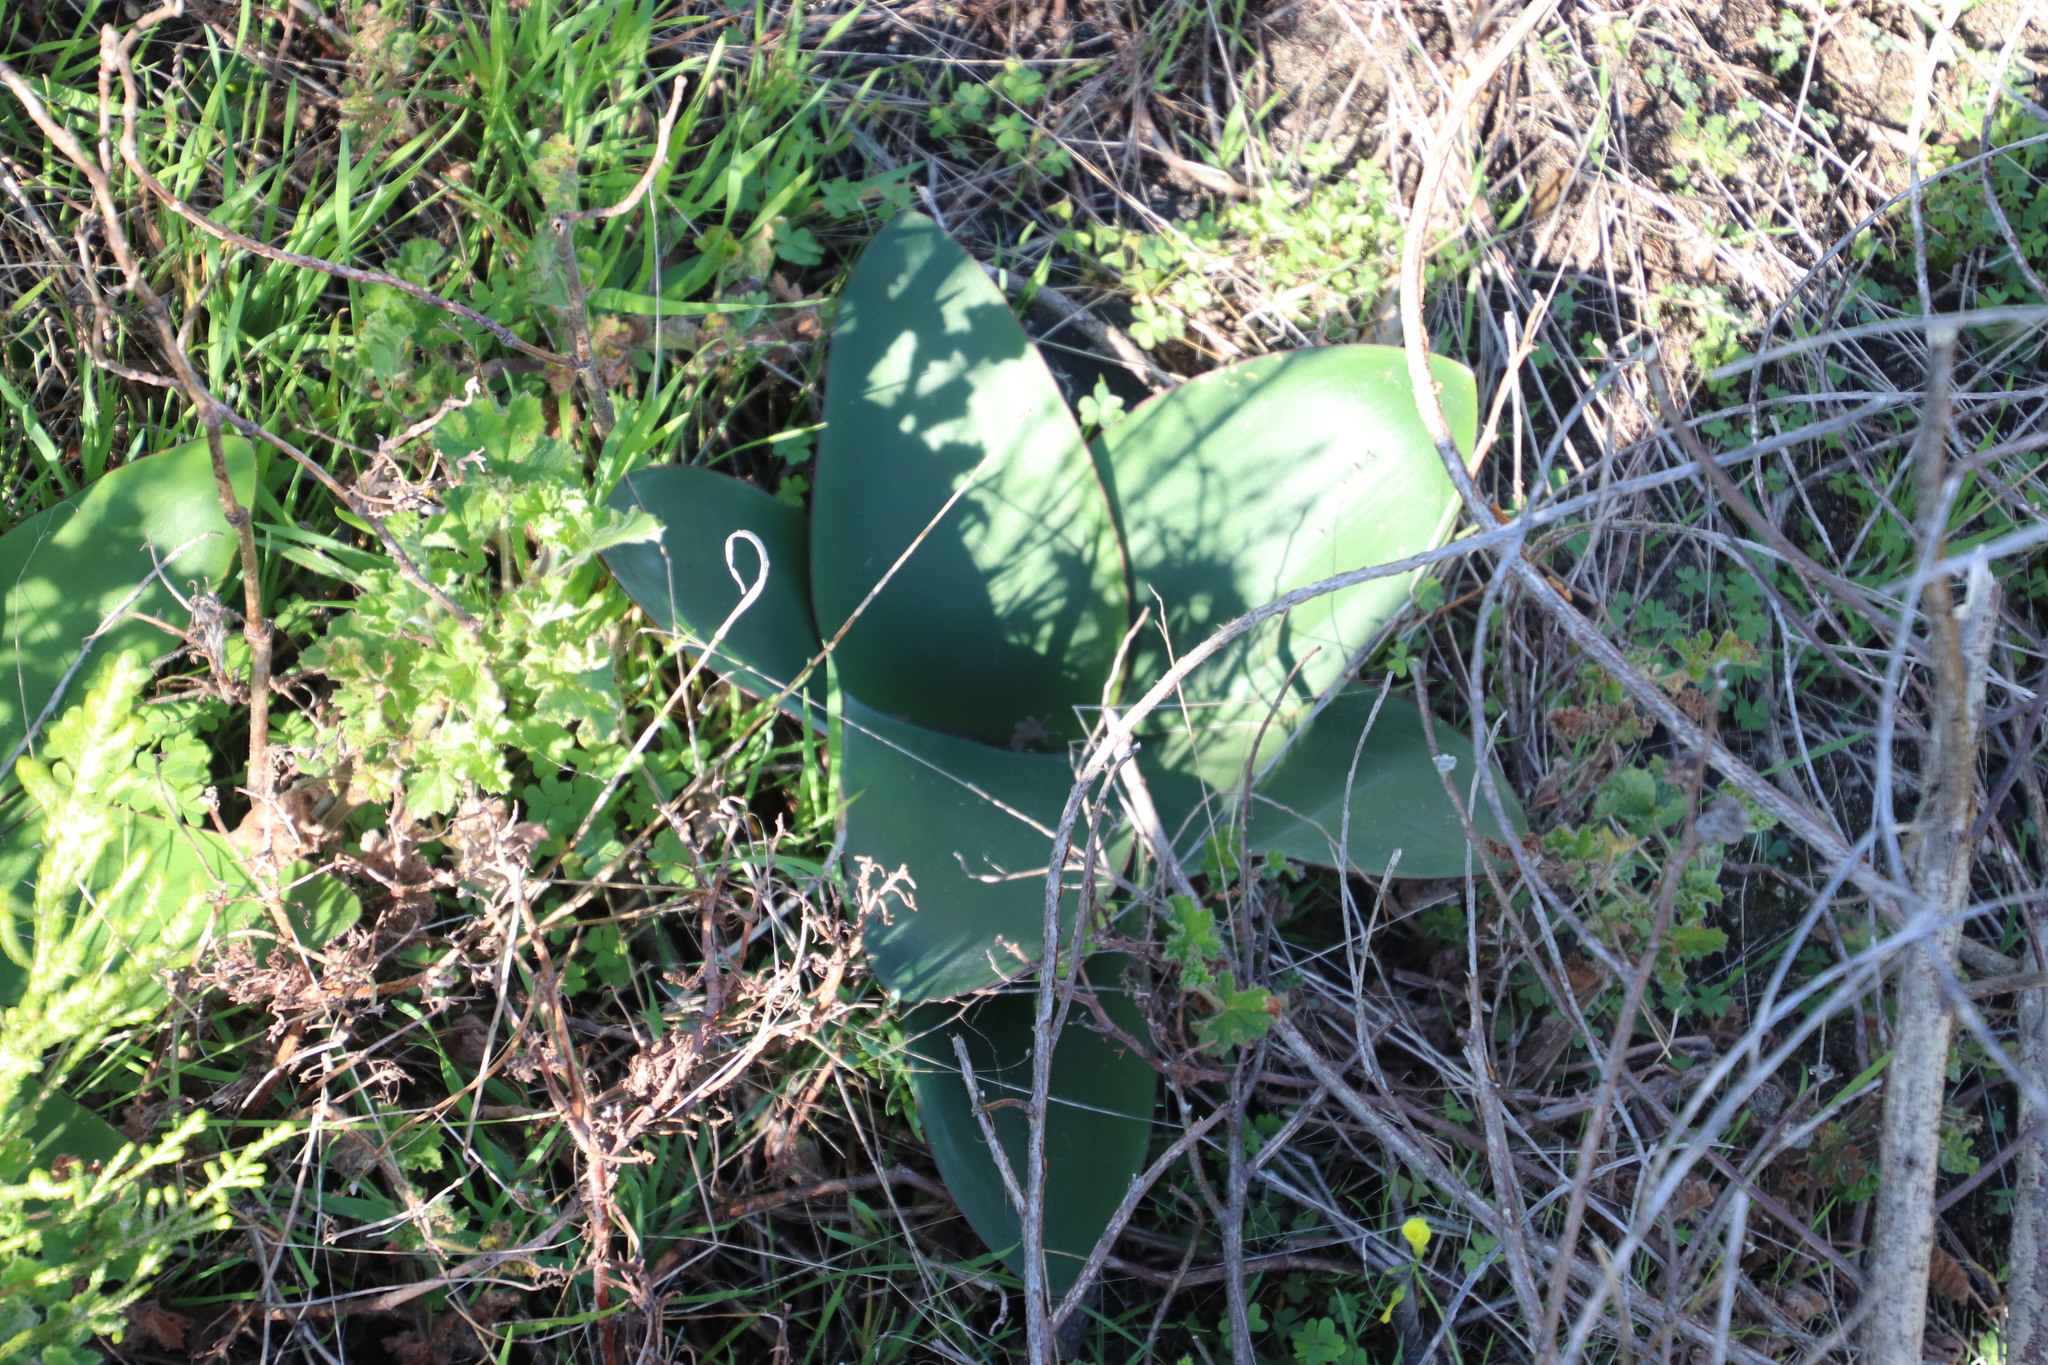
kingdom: Plantae
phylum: Tracheophyta
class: Liliopsida
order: Asparagales
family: Amaryllidaceae
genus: Brunsvigia
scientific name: Brunsvigia orientalis
